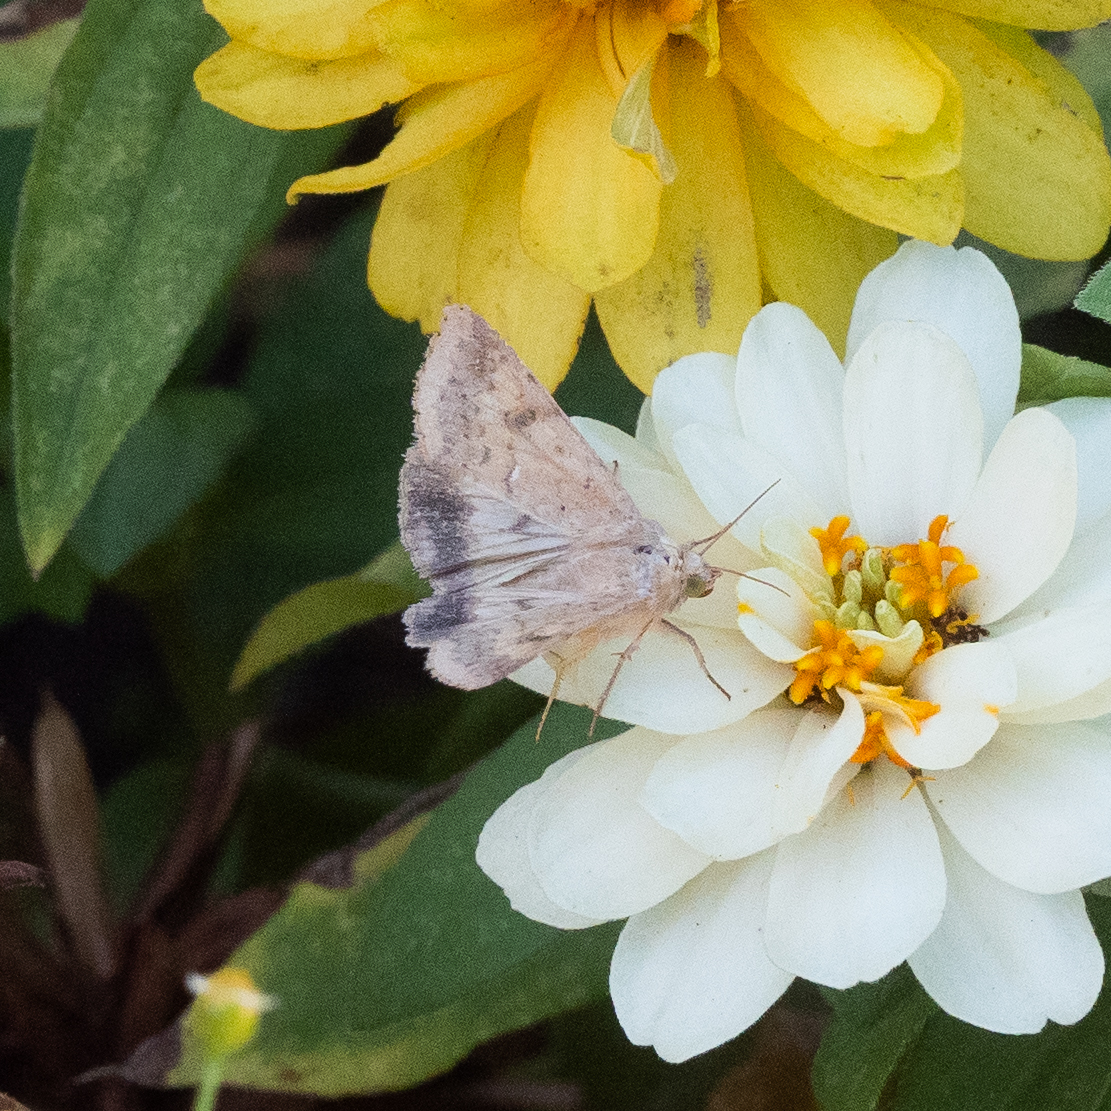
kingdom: Animalia
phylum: Arthropoda
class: Insecta
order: Lepidoptera
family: Noctuidae
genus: Helicoverpa
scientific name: Helicoverpa armigera
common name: Cotton bollworm
